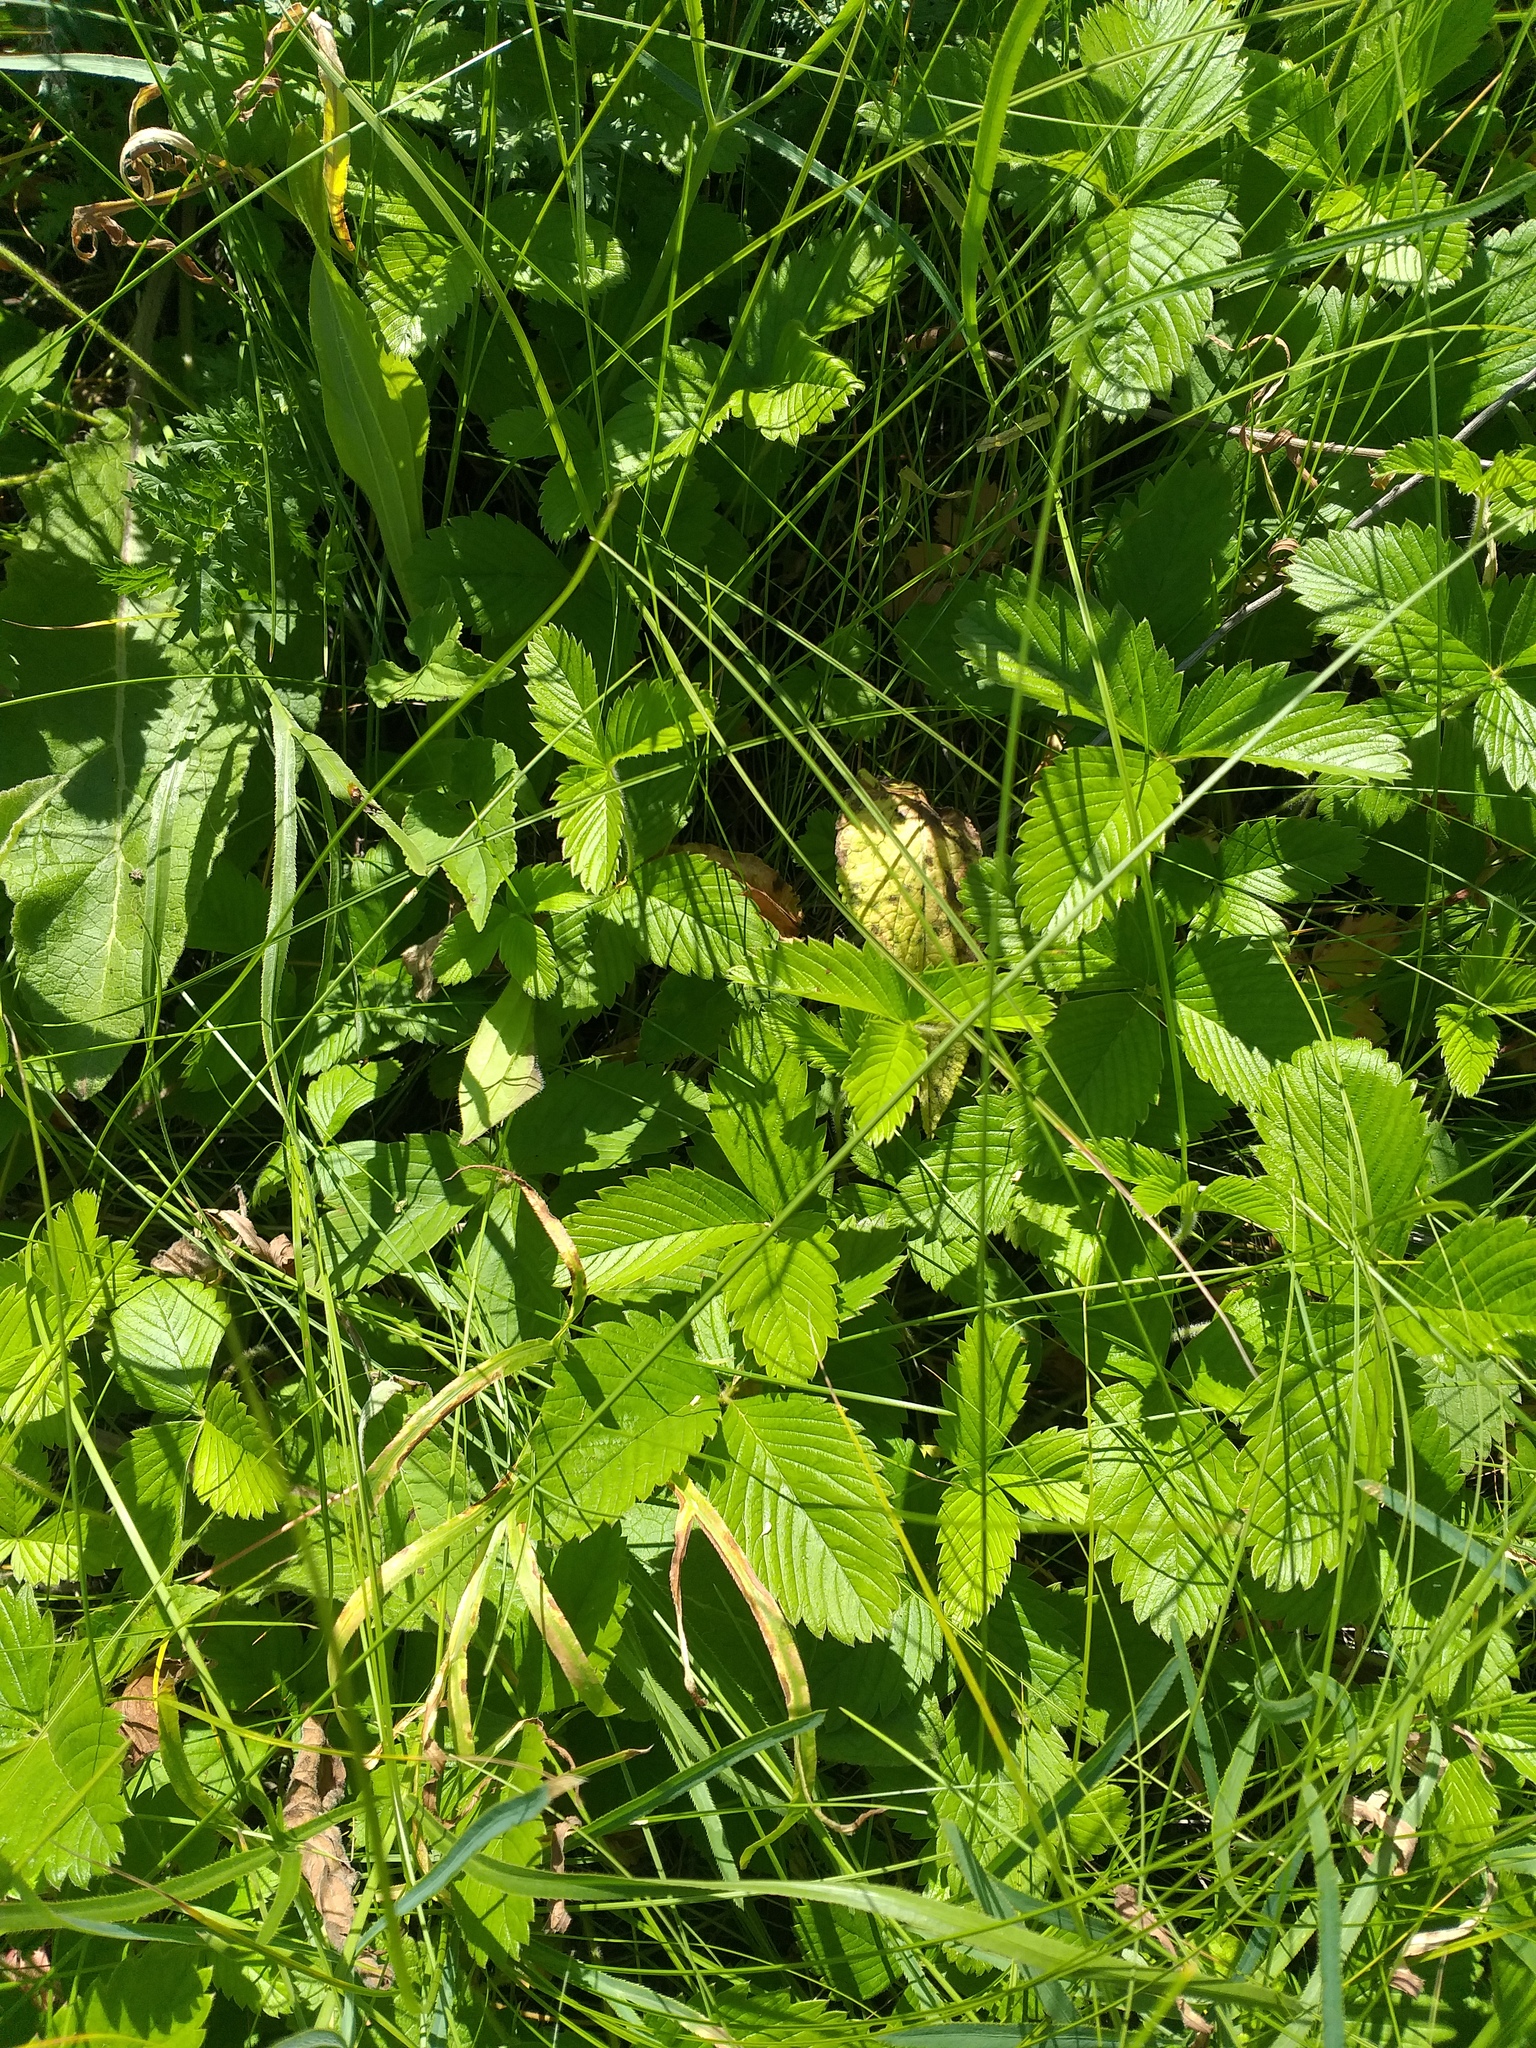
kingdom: Plantae
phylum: Tracheophyta
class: Magnoliopsida
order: Rosales
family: Rosaceae
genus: Fragaria
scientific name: Fragaria viridis
